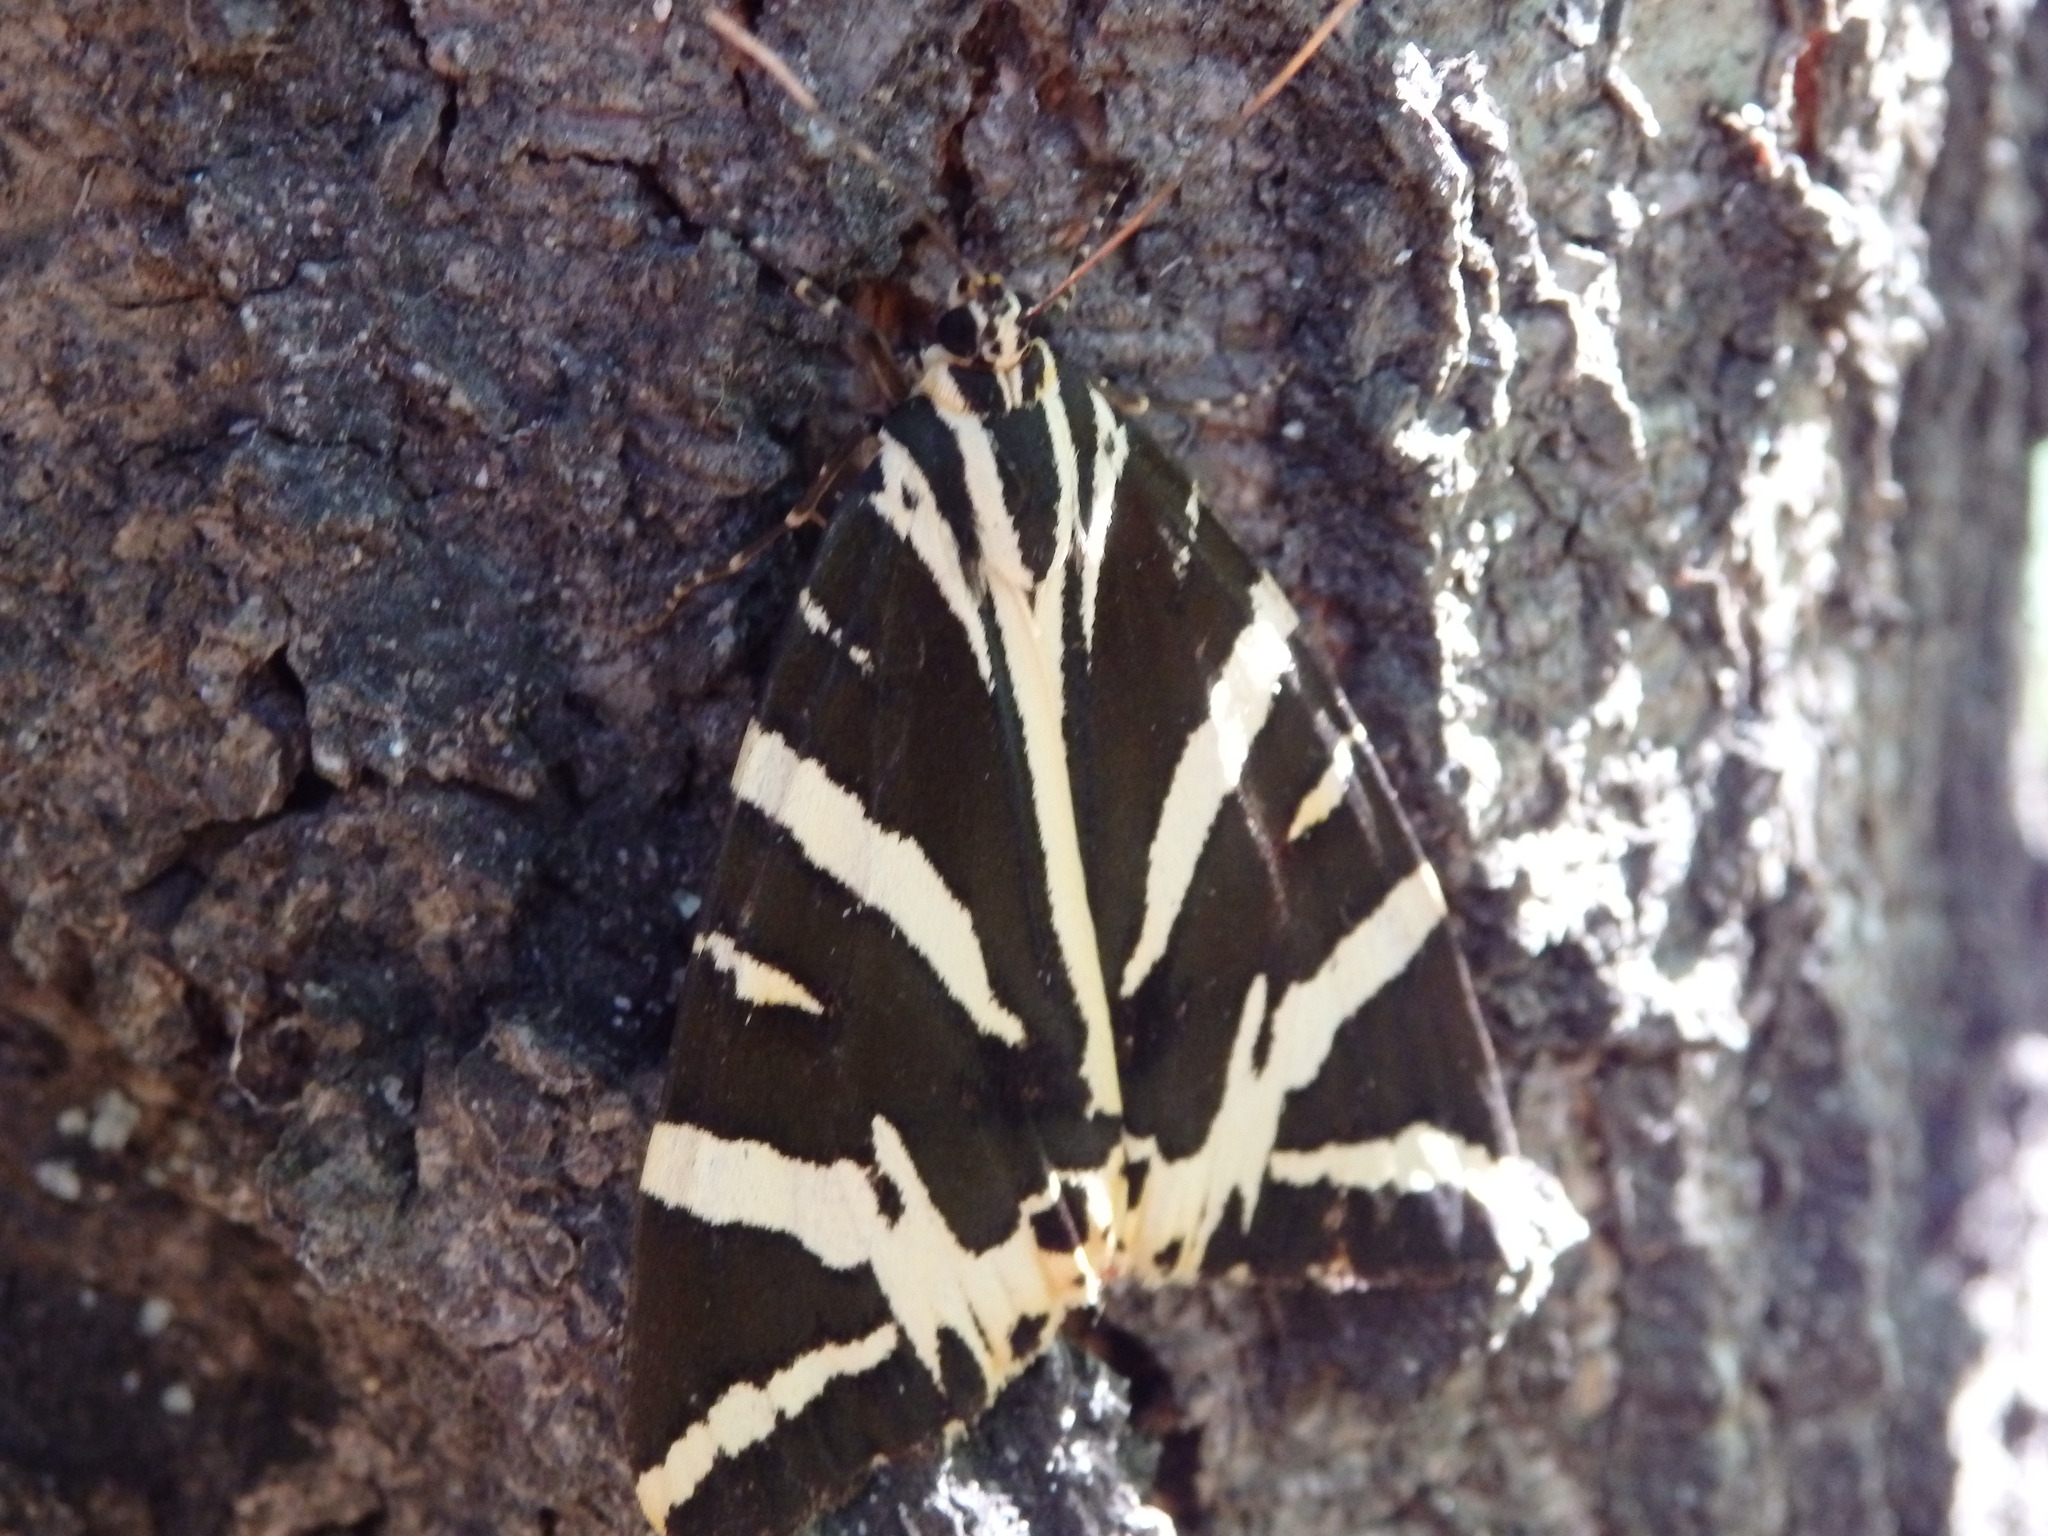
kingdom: Animalia
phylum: Arthropoda
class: Insecta
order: Lepidoptera
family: Erebidae
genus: Euplagia
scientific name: Euplagia quadripunctaria
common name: Jersey tiger
